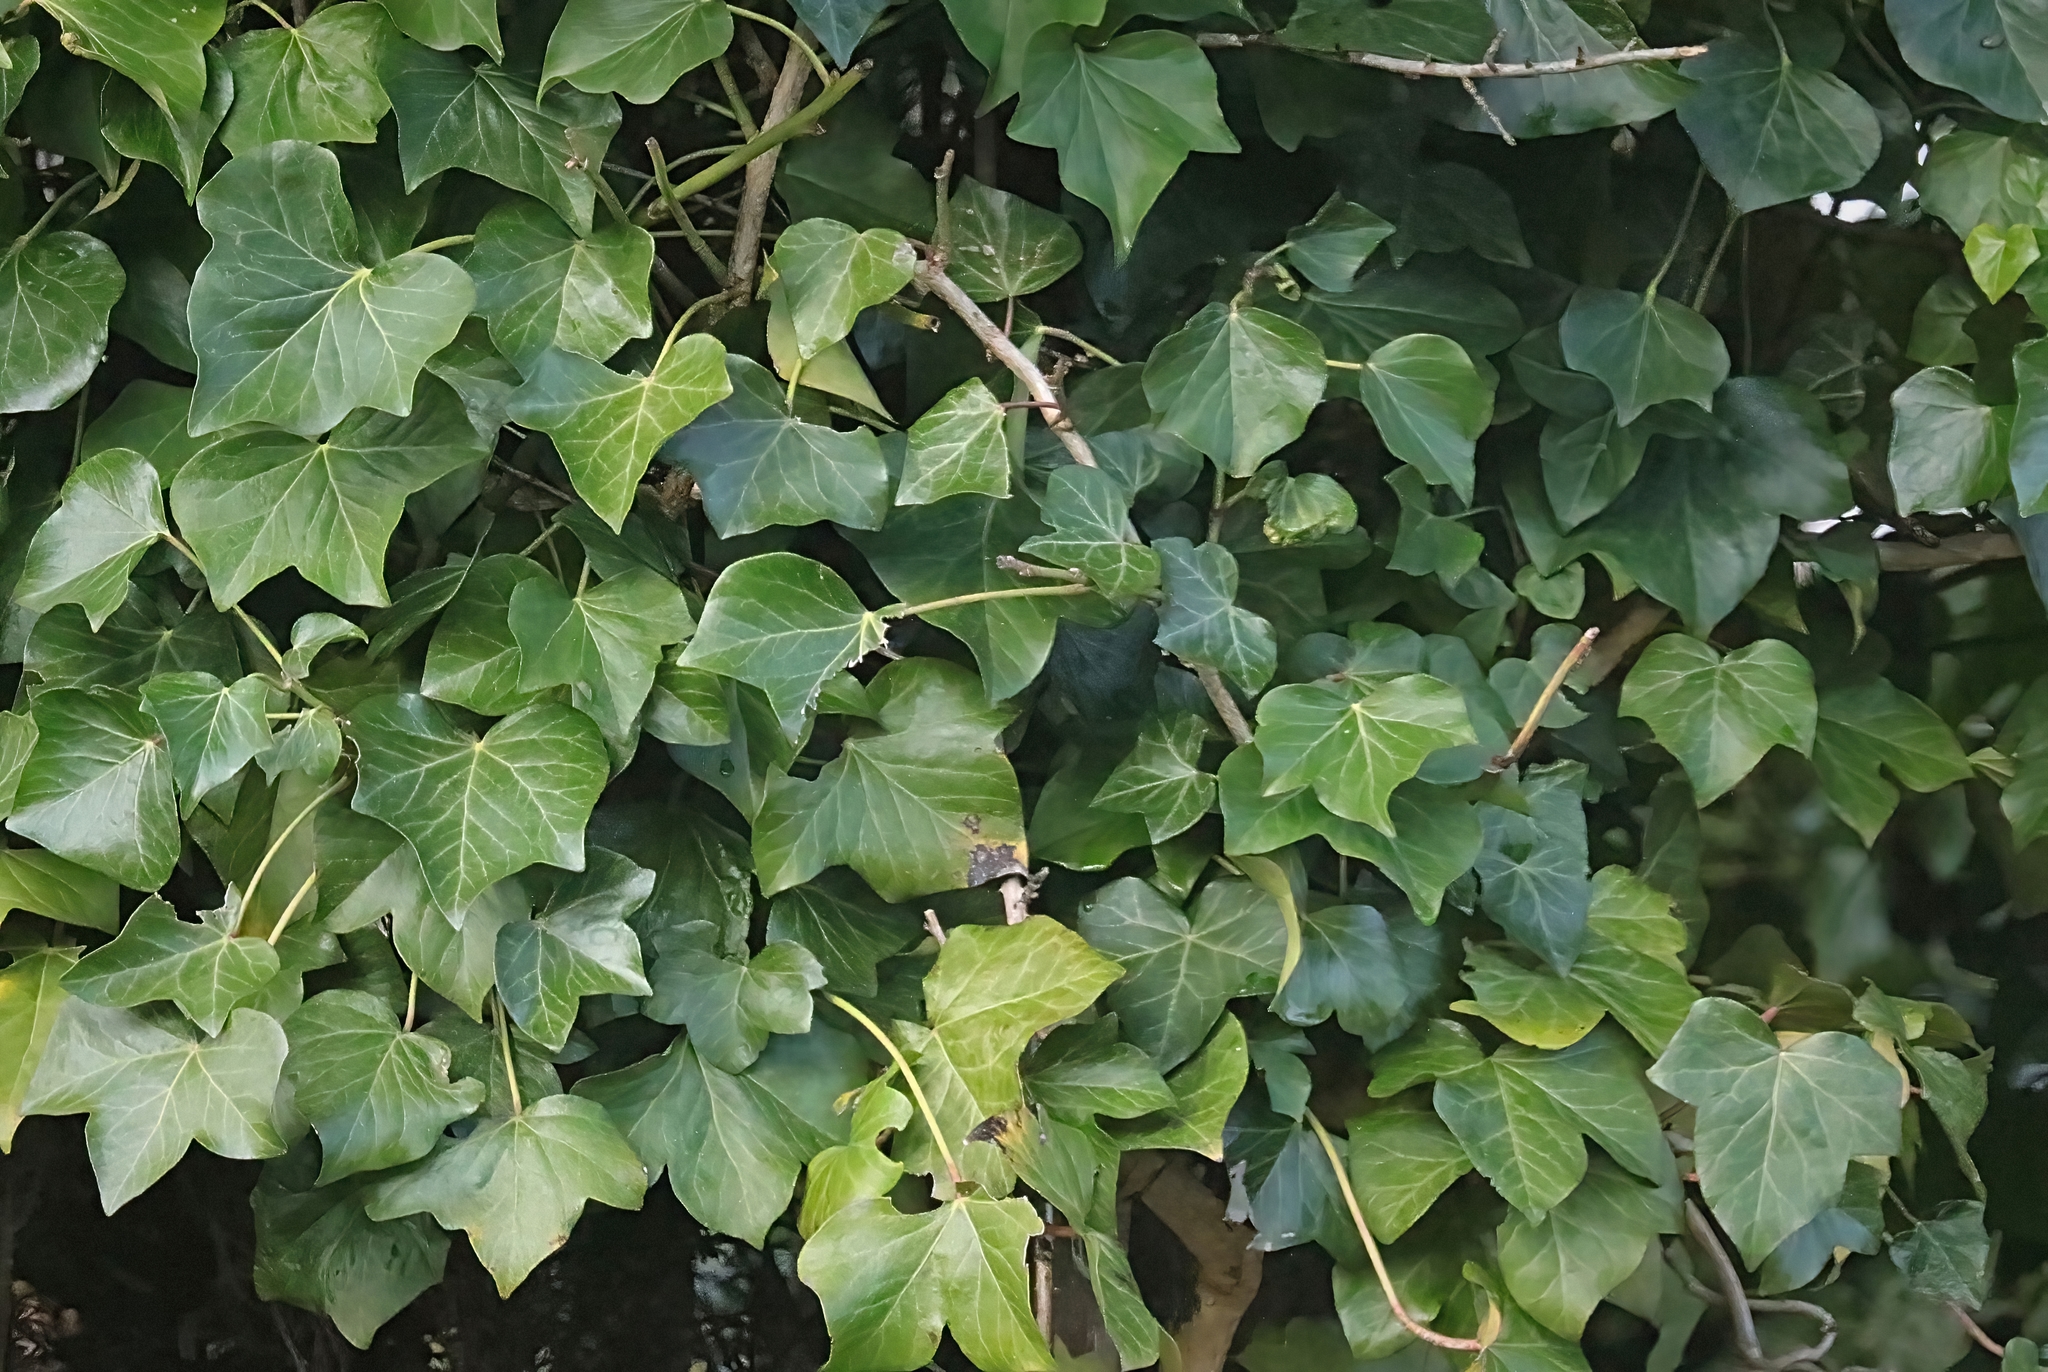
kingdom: Plantae
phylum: Tracheophyta
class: Magnoliopsida
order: Apiales
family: Araliaceae
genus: Hedera
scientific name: Hedera helix
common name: Ivy
